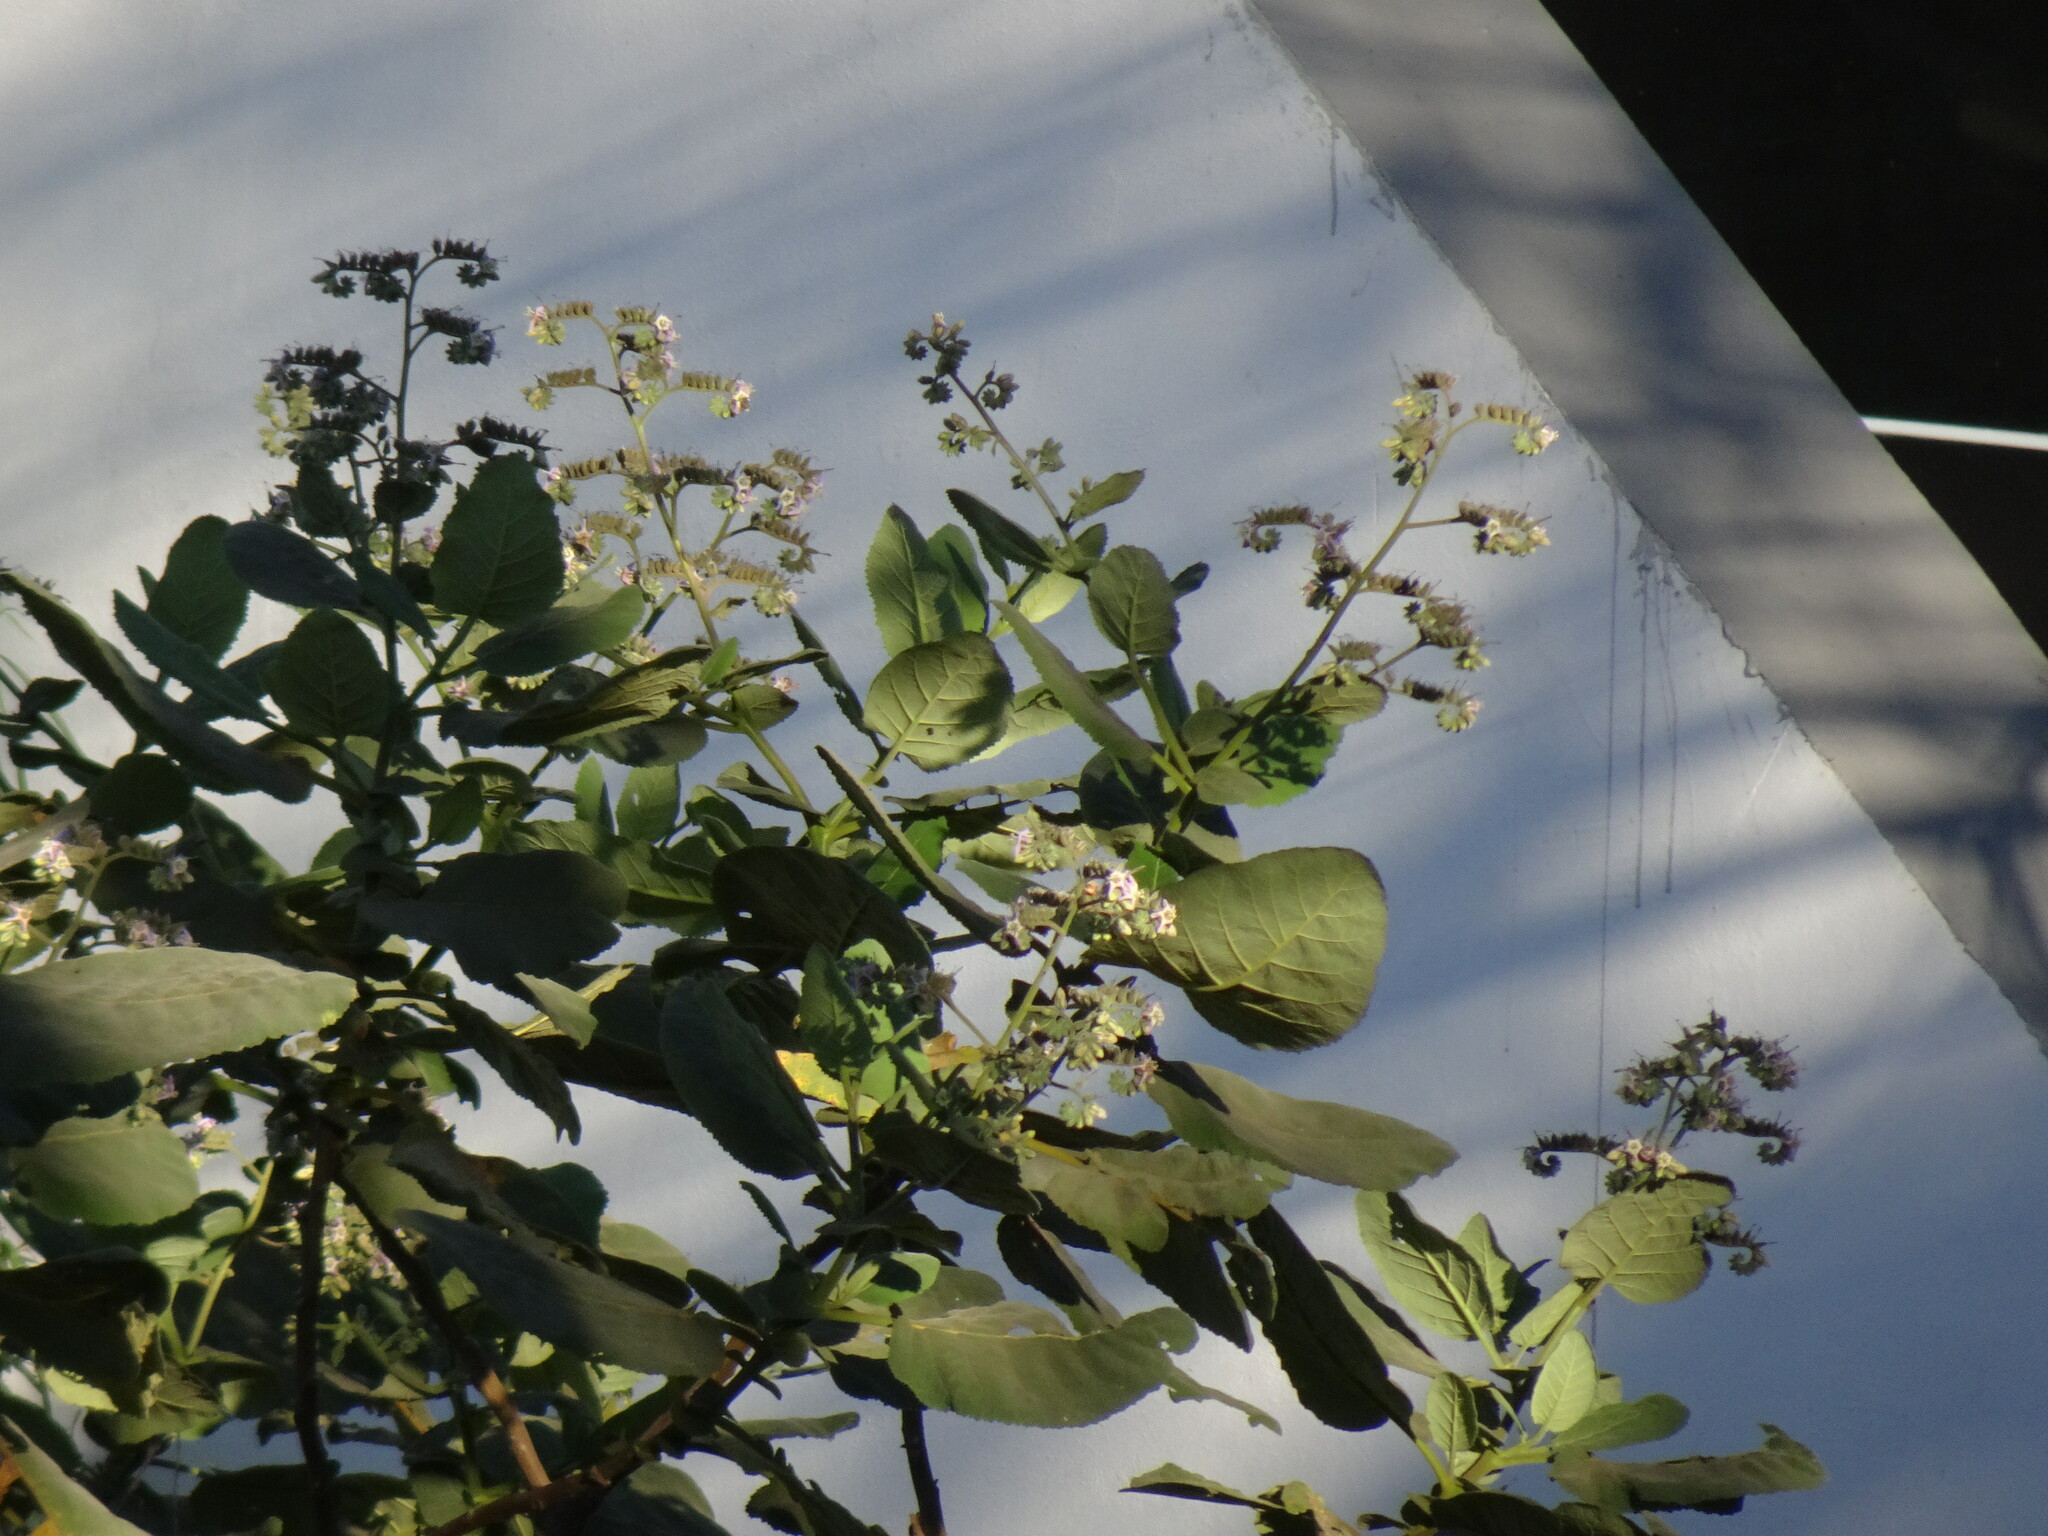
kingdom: Plantae
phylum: Tracheophyta
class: Magnoliopsida
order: Boraginales
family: Namaceae
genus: Wigandia
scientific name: Wigandia urens
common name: Caracus wigandia
